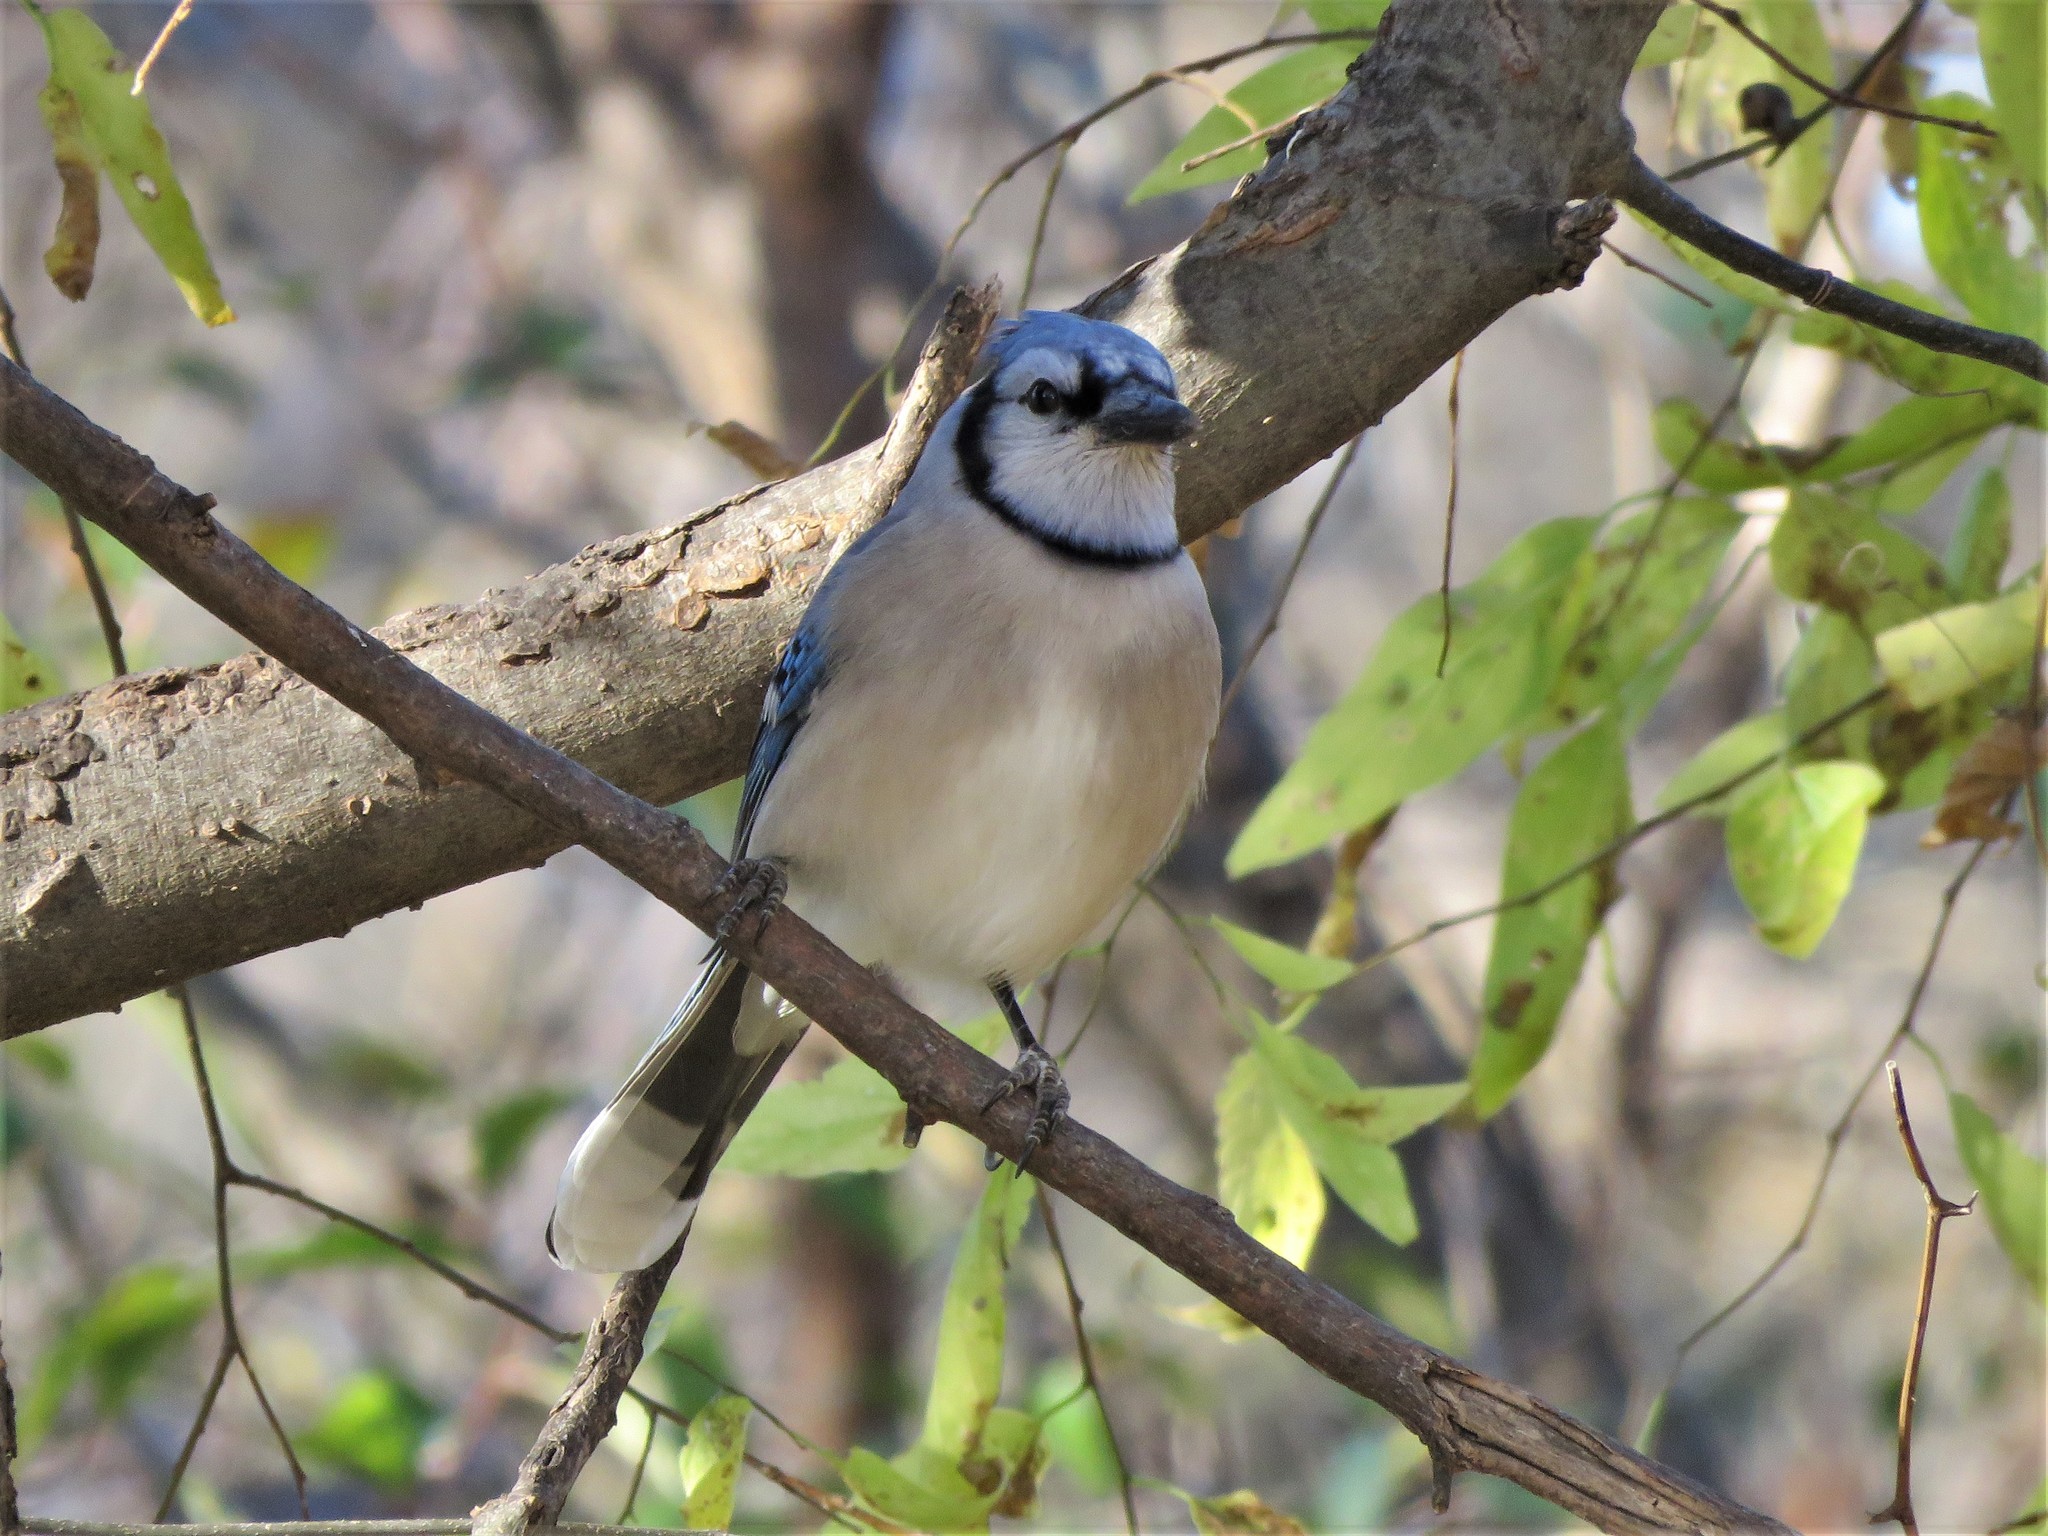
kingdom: Animalia
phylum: Chordata
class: Aves
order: Passeriformes
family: Corvidae
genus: Cyanocitta
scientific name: Cyanocitta cristata
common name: Blue jay
